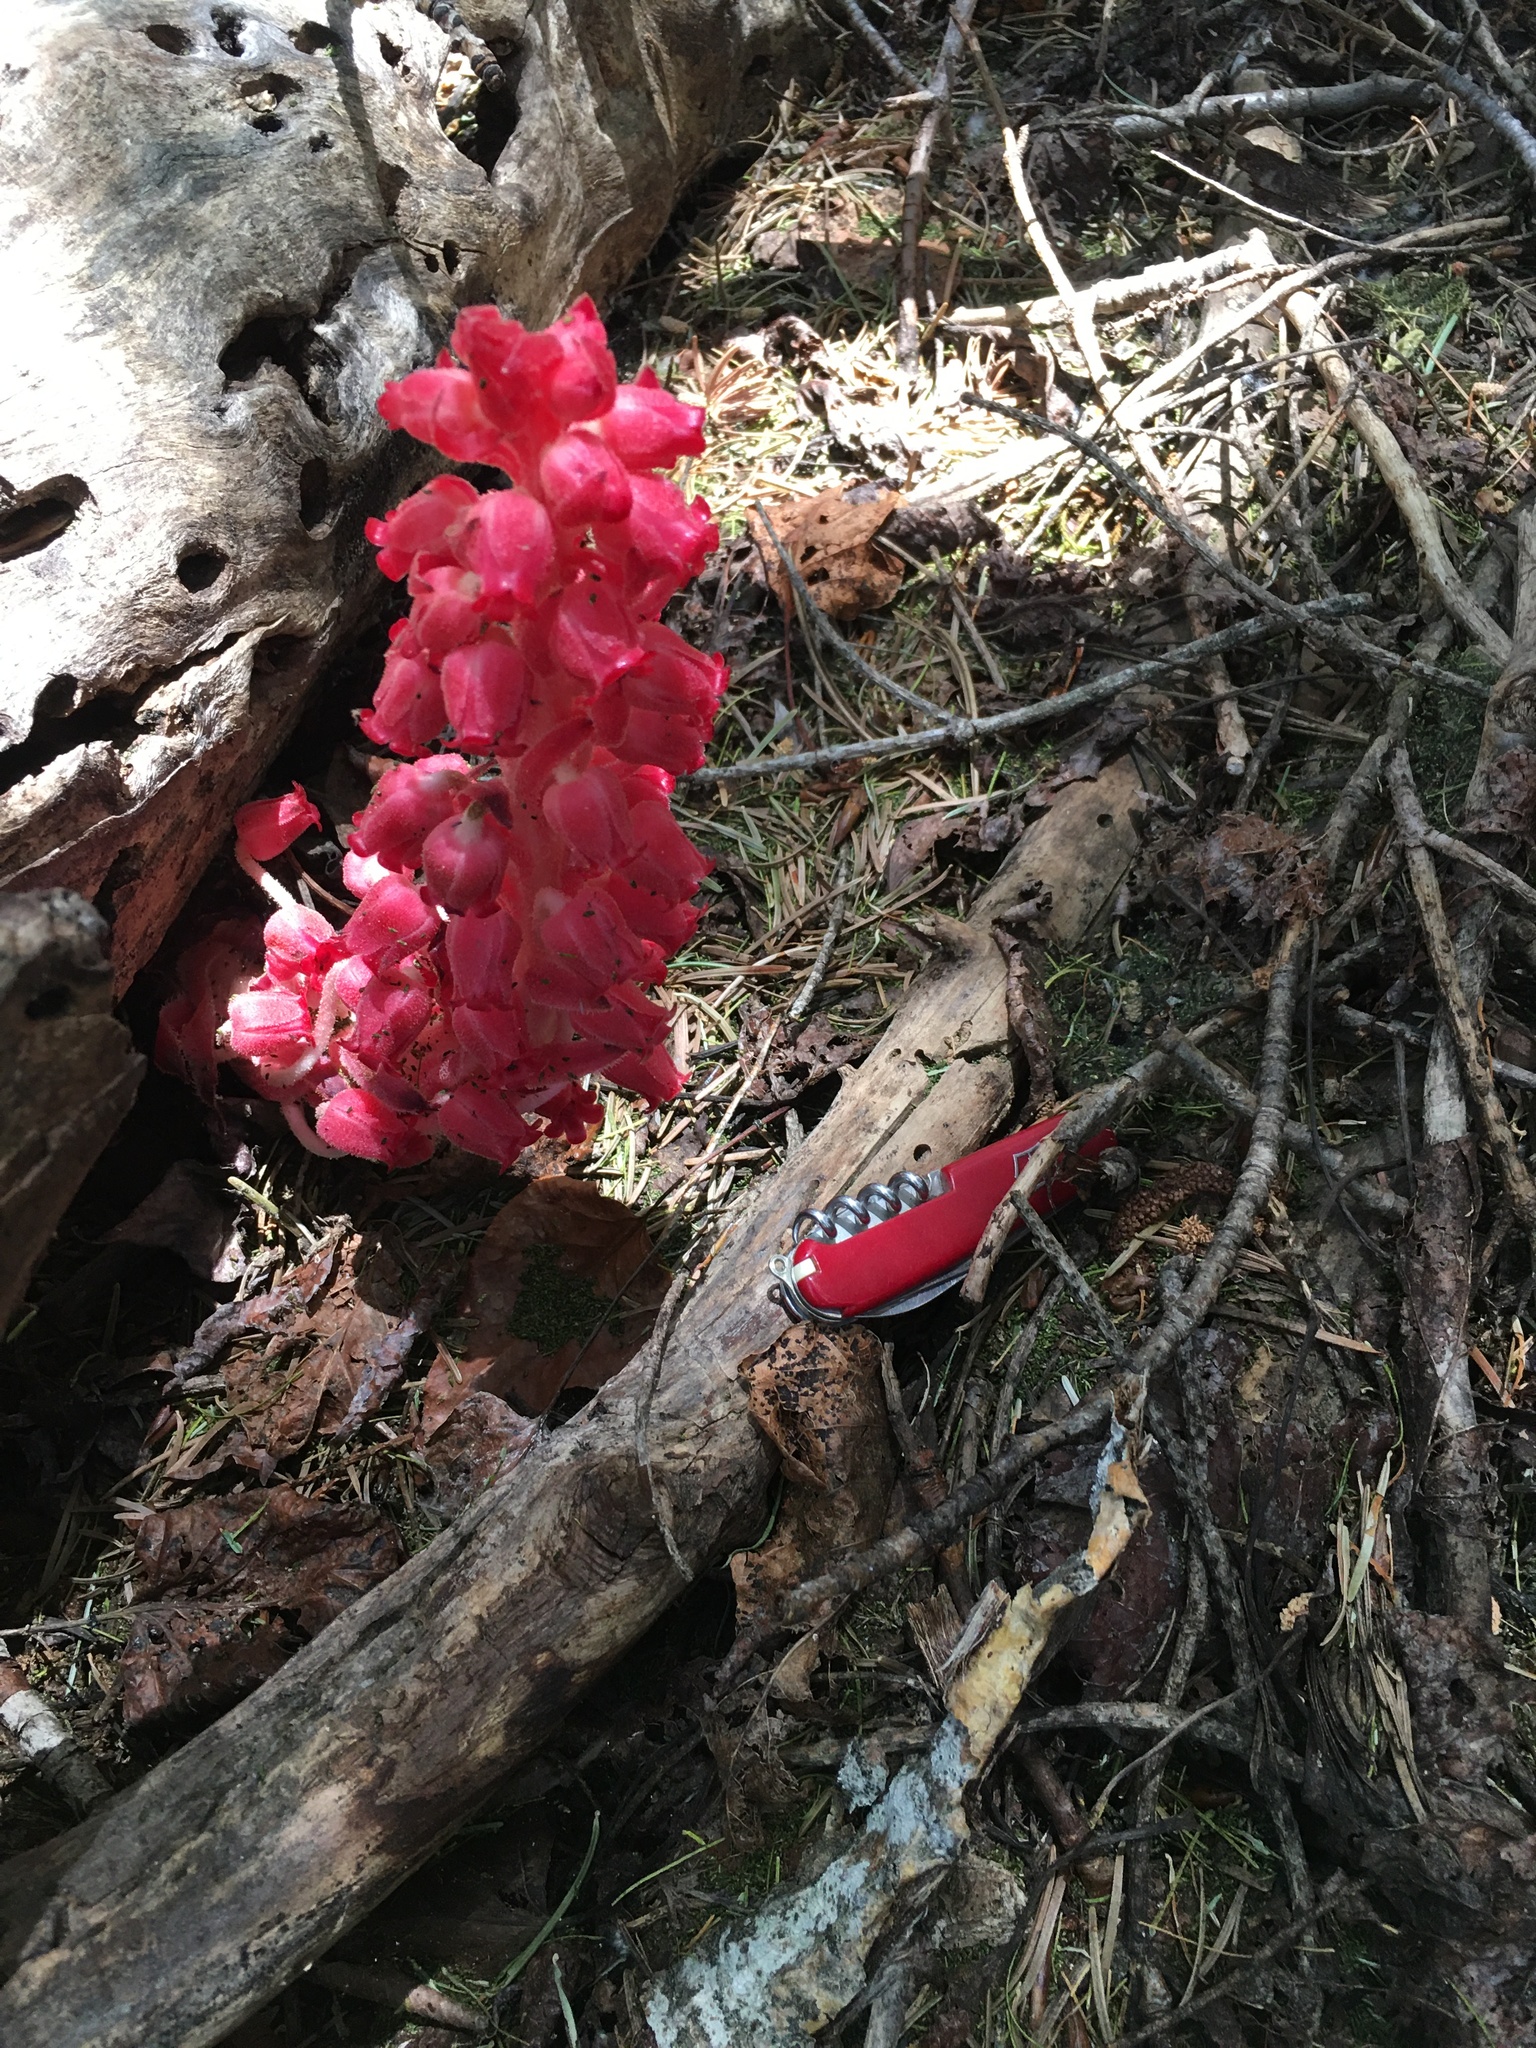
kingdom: Plantae
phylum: Tracheophyta
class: Magnoliopsida
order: Ericales
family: Ericaceae
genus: Sarcodes
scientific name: Sarcodes sanguinea
